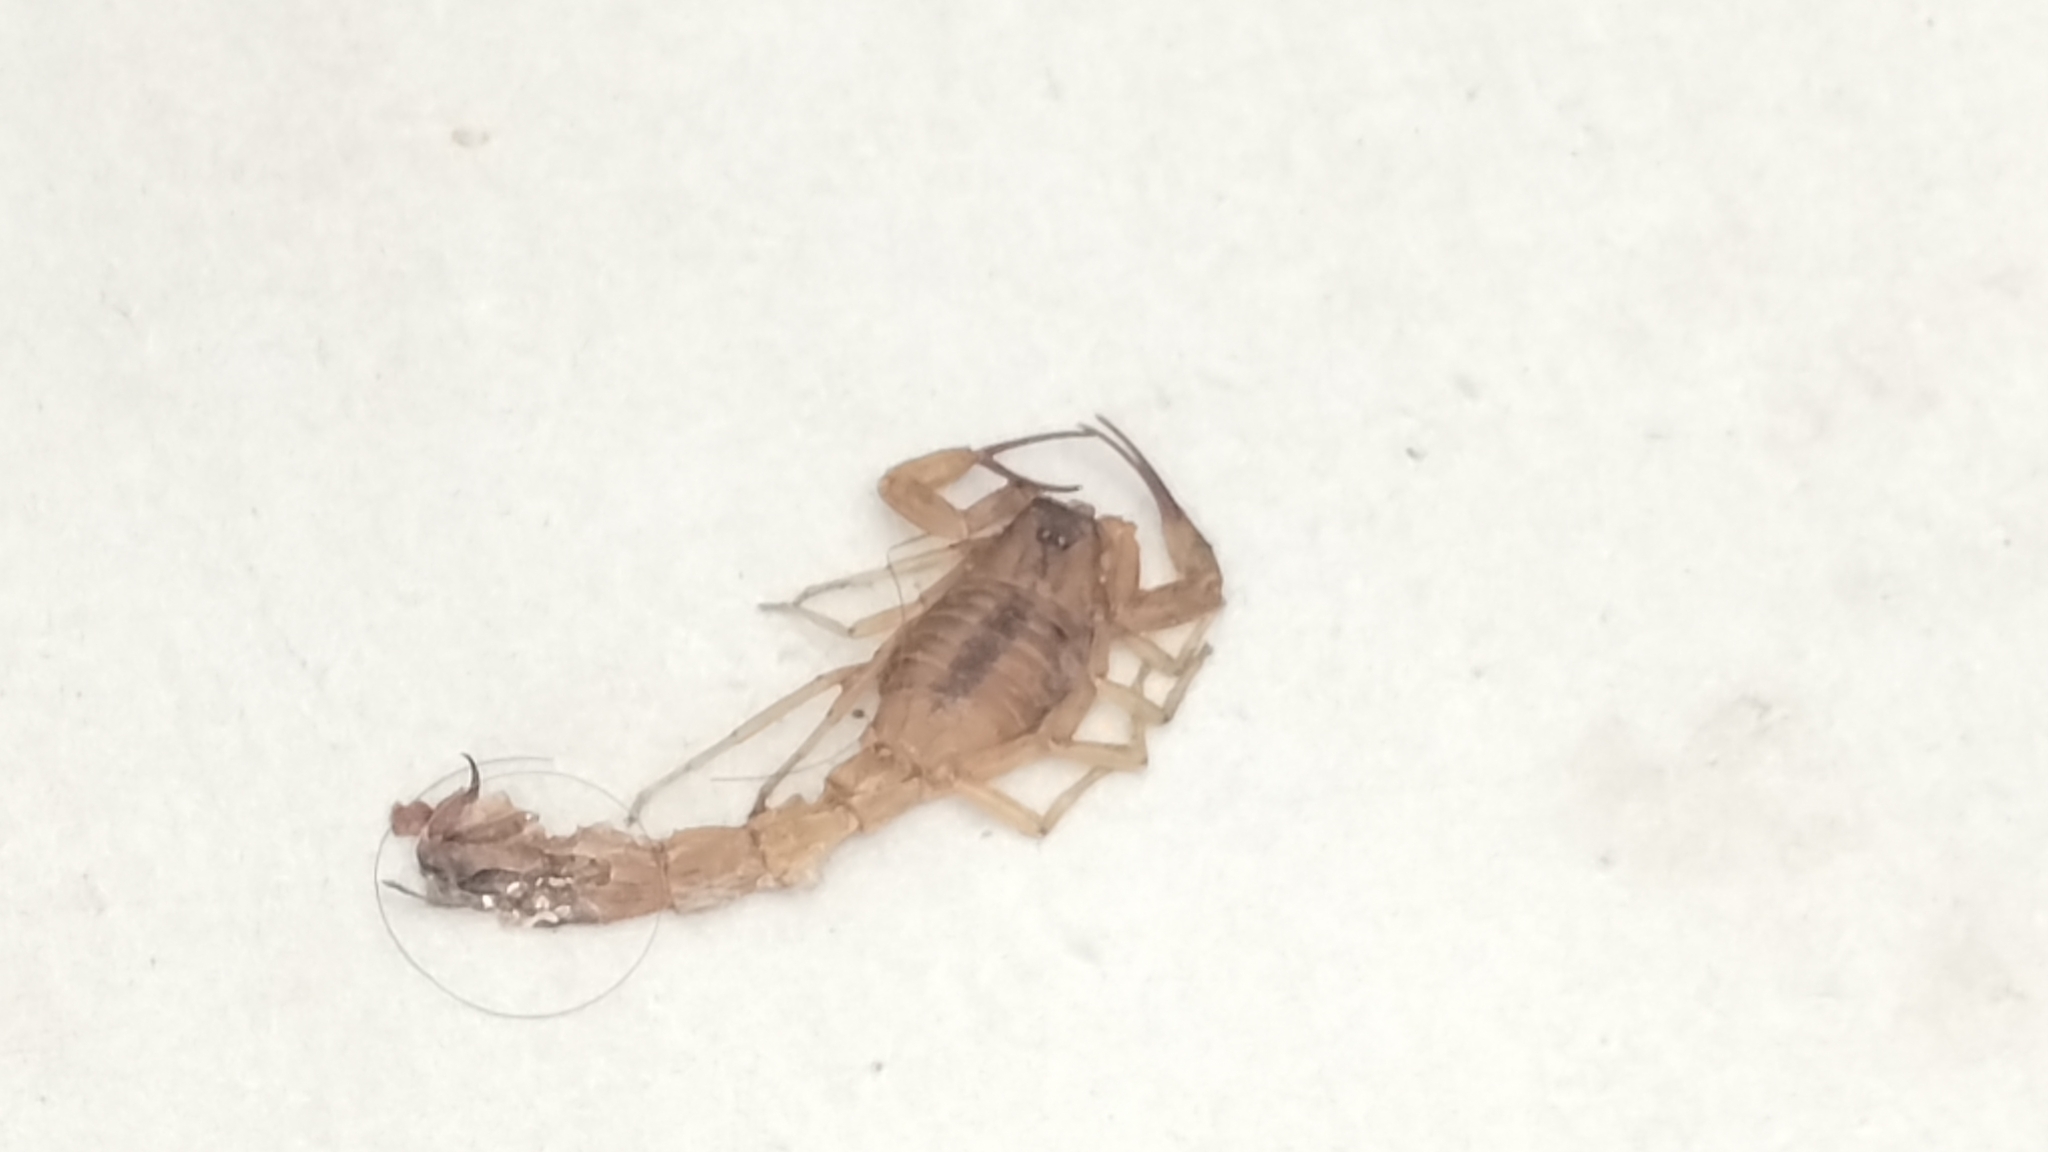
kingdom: Animalia
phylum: Arthropoda
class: Arachnida
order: Scorpiones
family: Buthidae
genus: Tityus
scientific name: Tityus stigmurus
